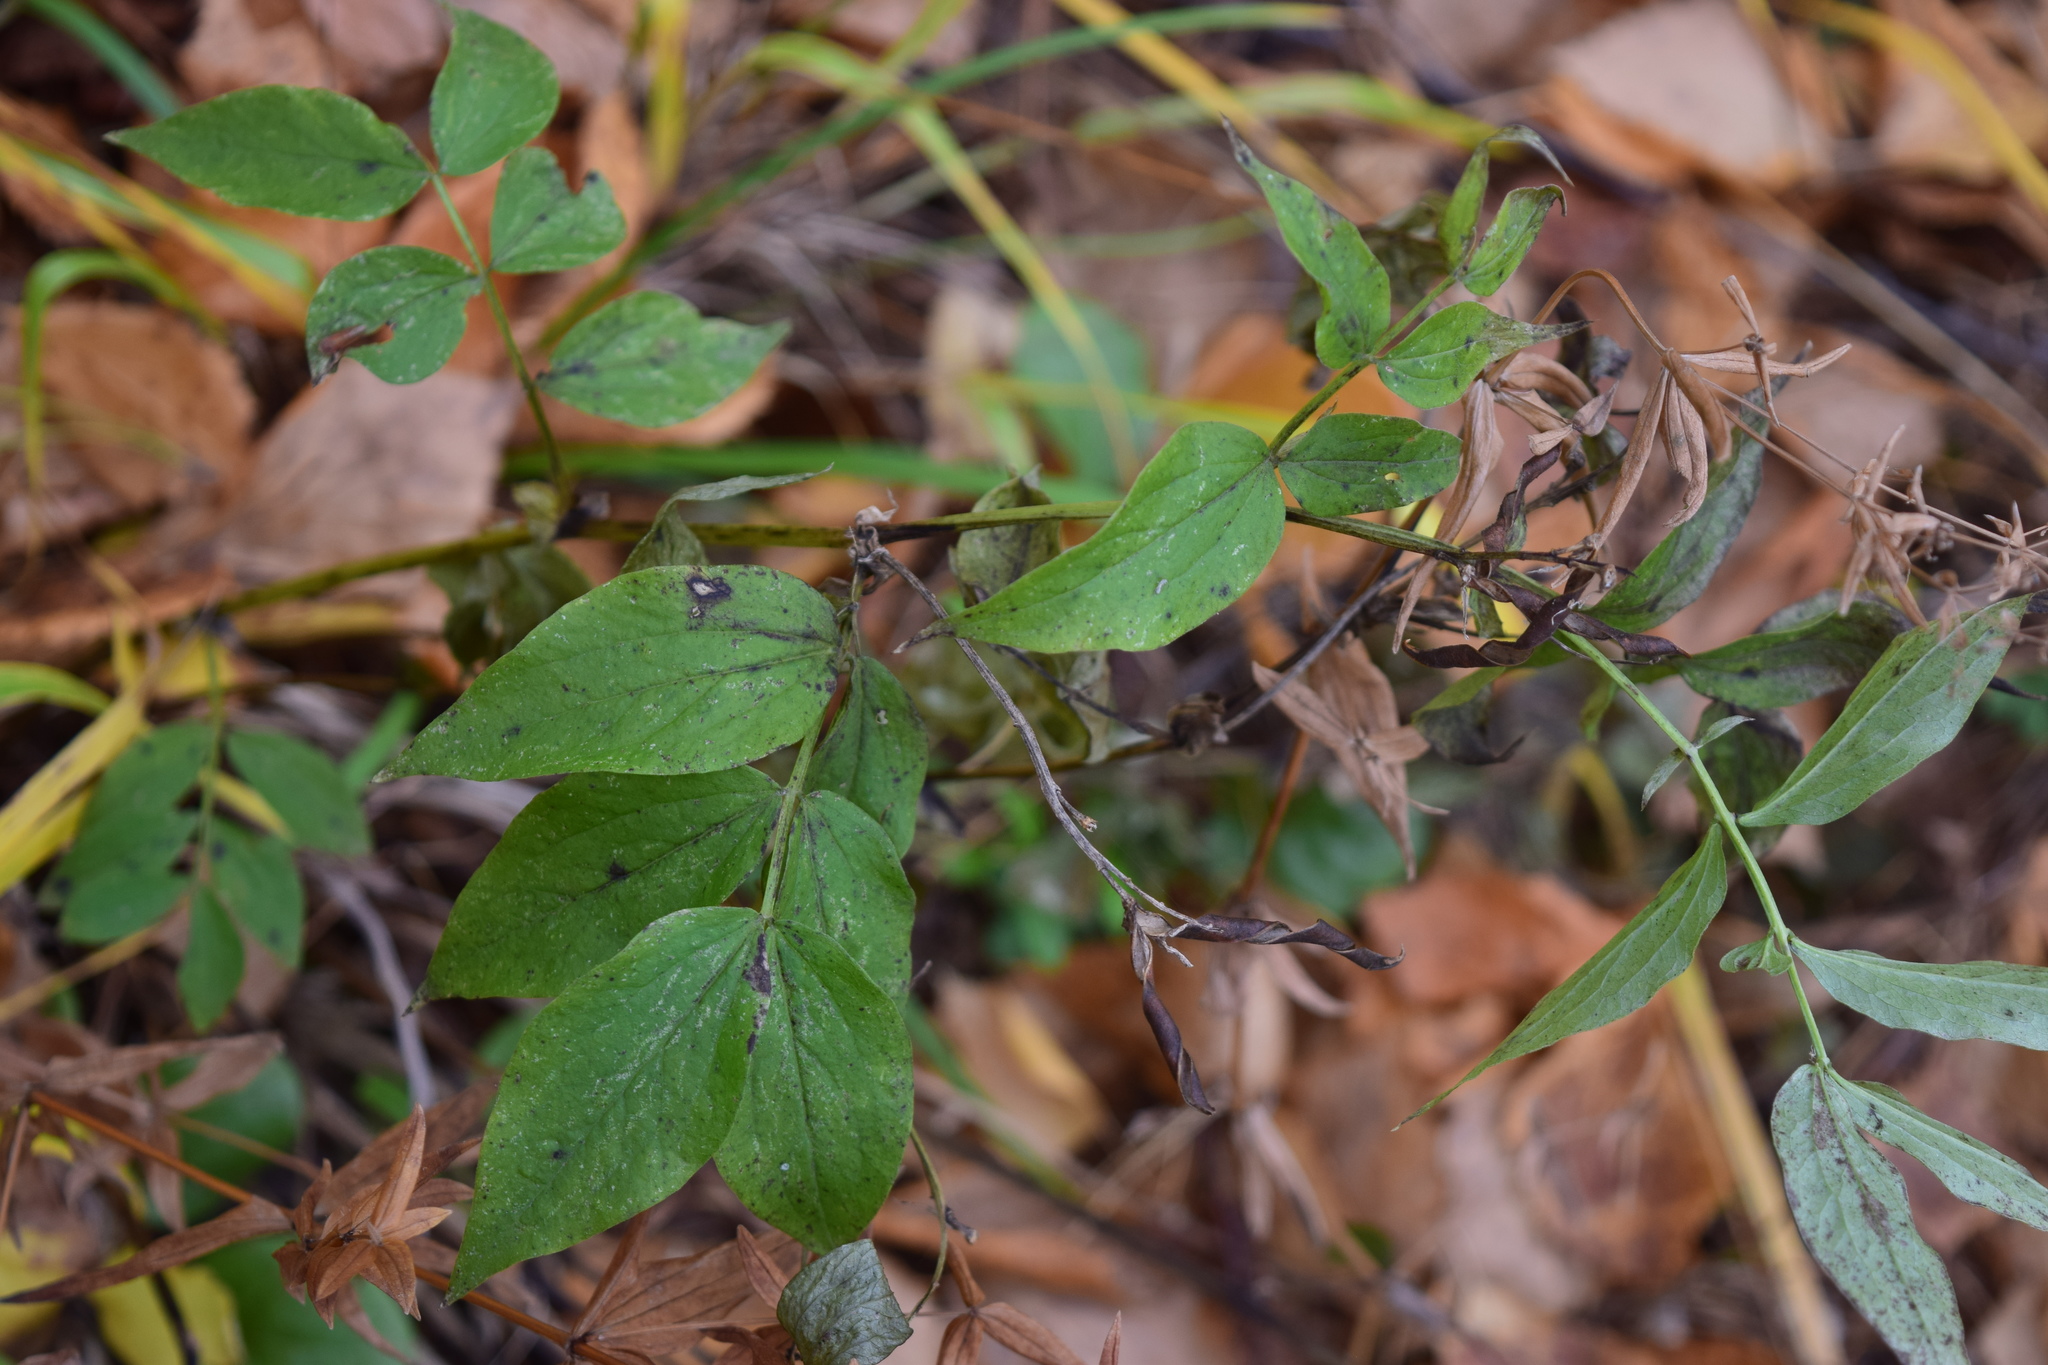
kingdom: Plantae
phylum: Tracheophyta
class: Magnoliopsida
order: Fabales
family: Fabaceae
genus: Lathyrus
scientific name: Lathyrus vernus
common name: Spring pea
